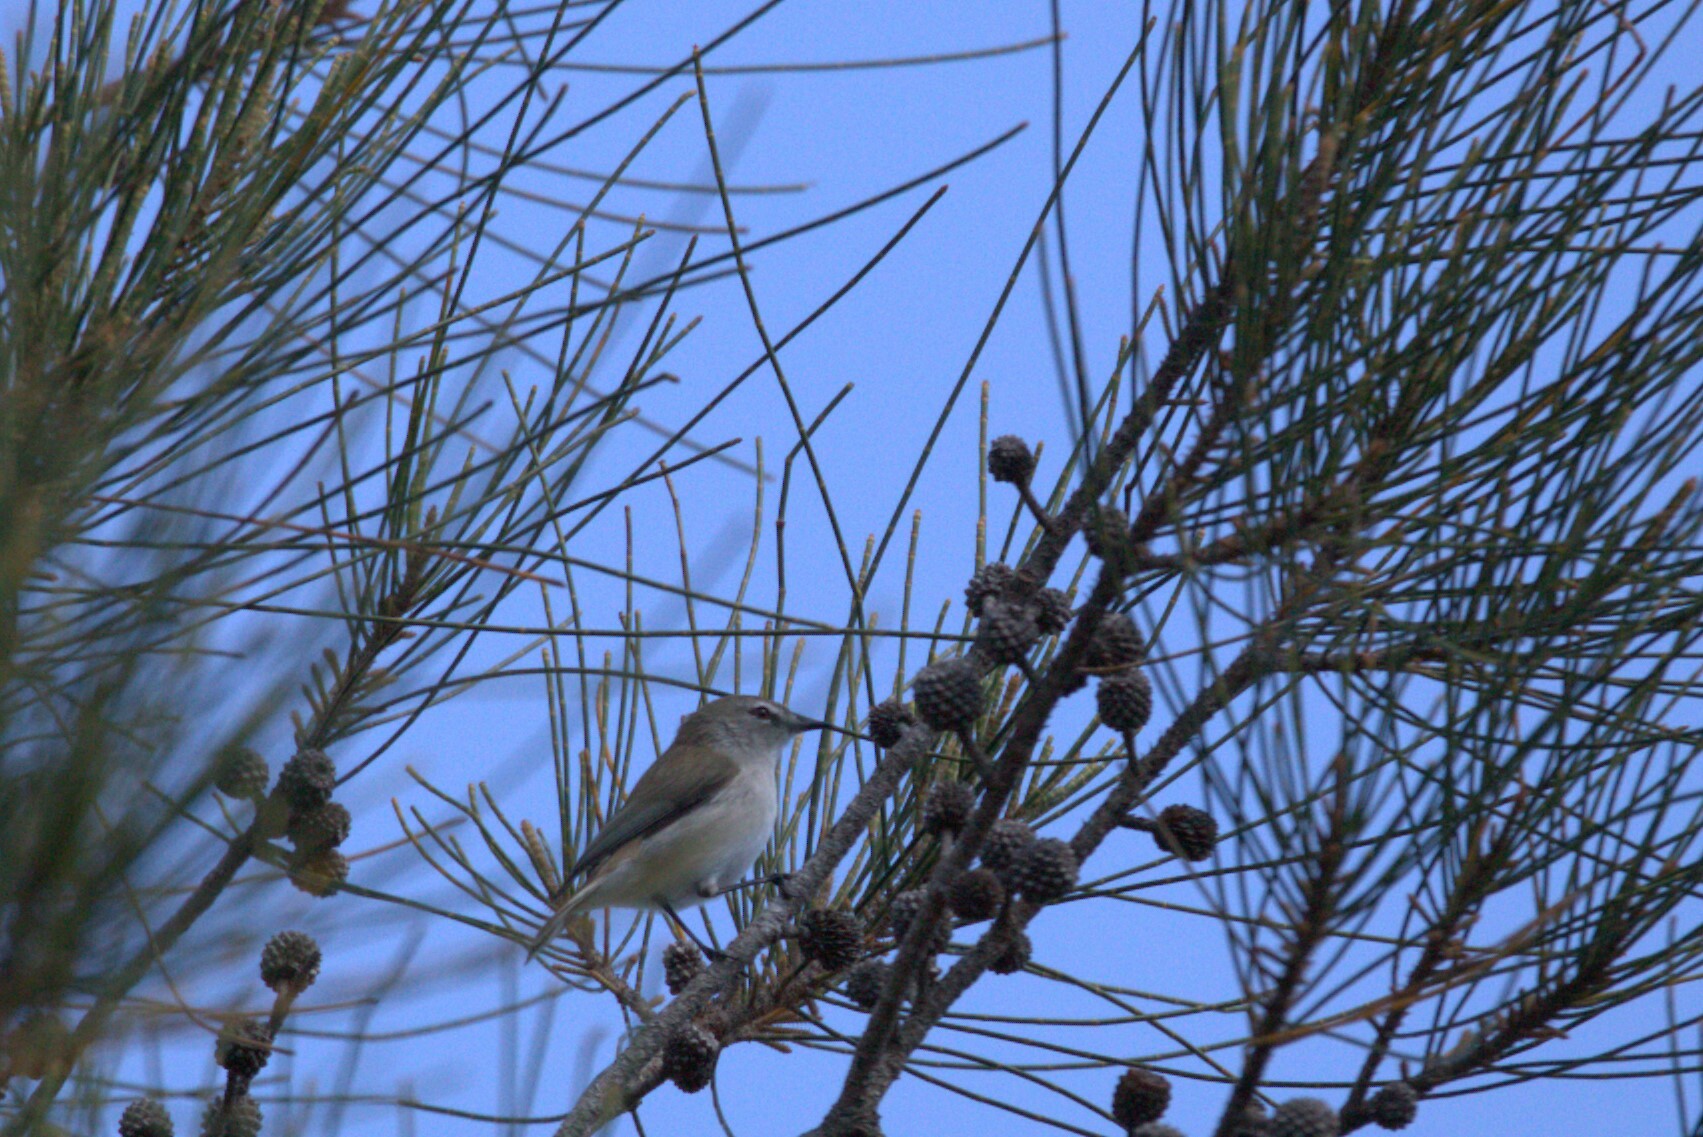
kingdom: Animalia
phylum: Chordata
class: Aves
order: Passeriformes
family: Acanthizidae
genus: Gerygone
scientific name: Gerygone levigaster
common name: Mangrove gerygone
